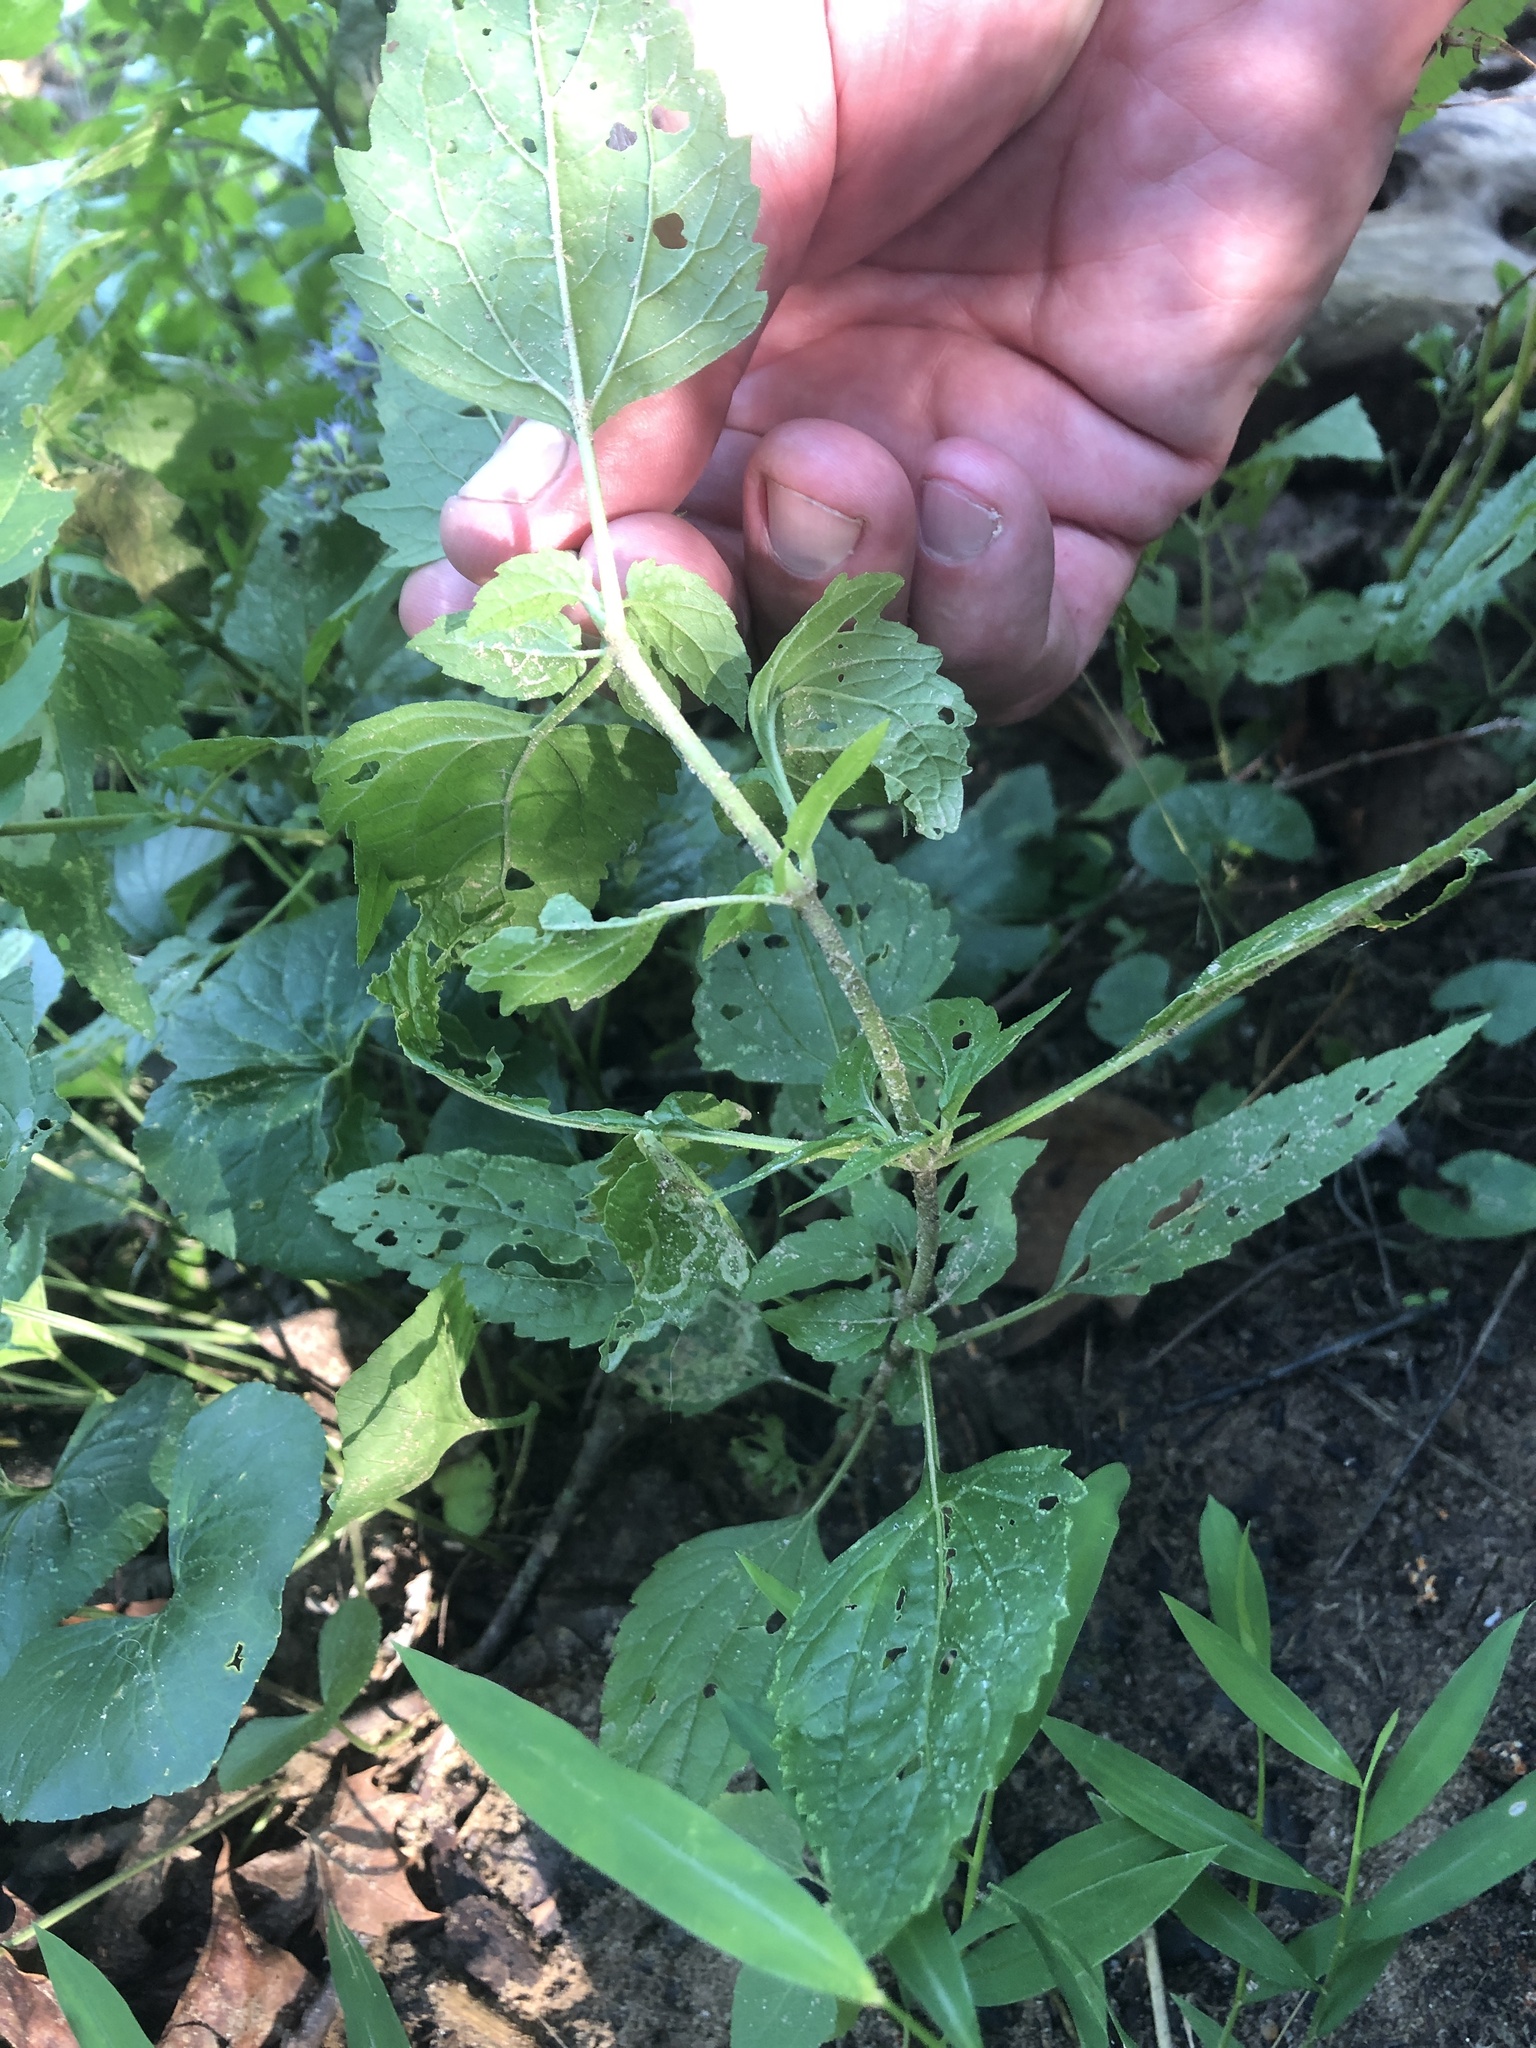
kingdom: Plantae
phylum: Tracheophyta
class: Magnoliopsida
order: Asterales
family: Asteraceae
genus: Conoclinium
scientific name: Conoclinium coelestinum
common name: Blue mistflower
